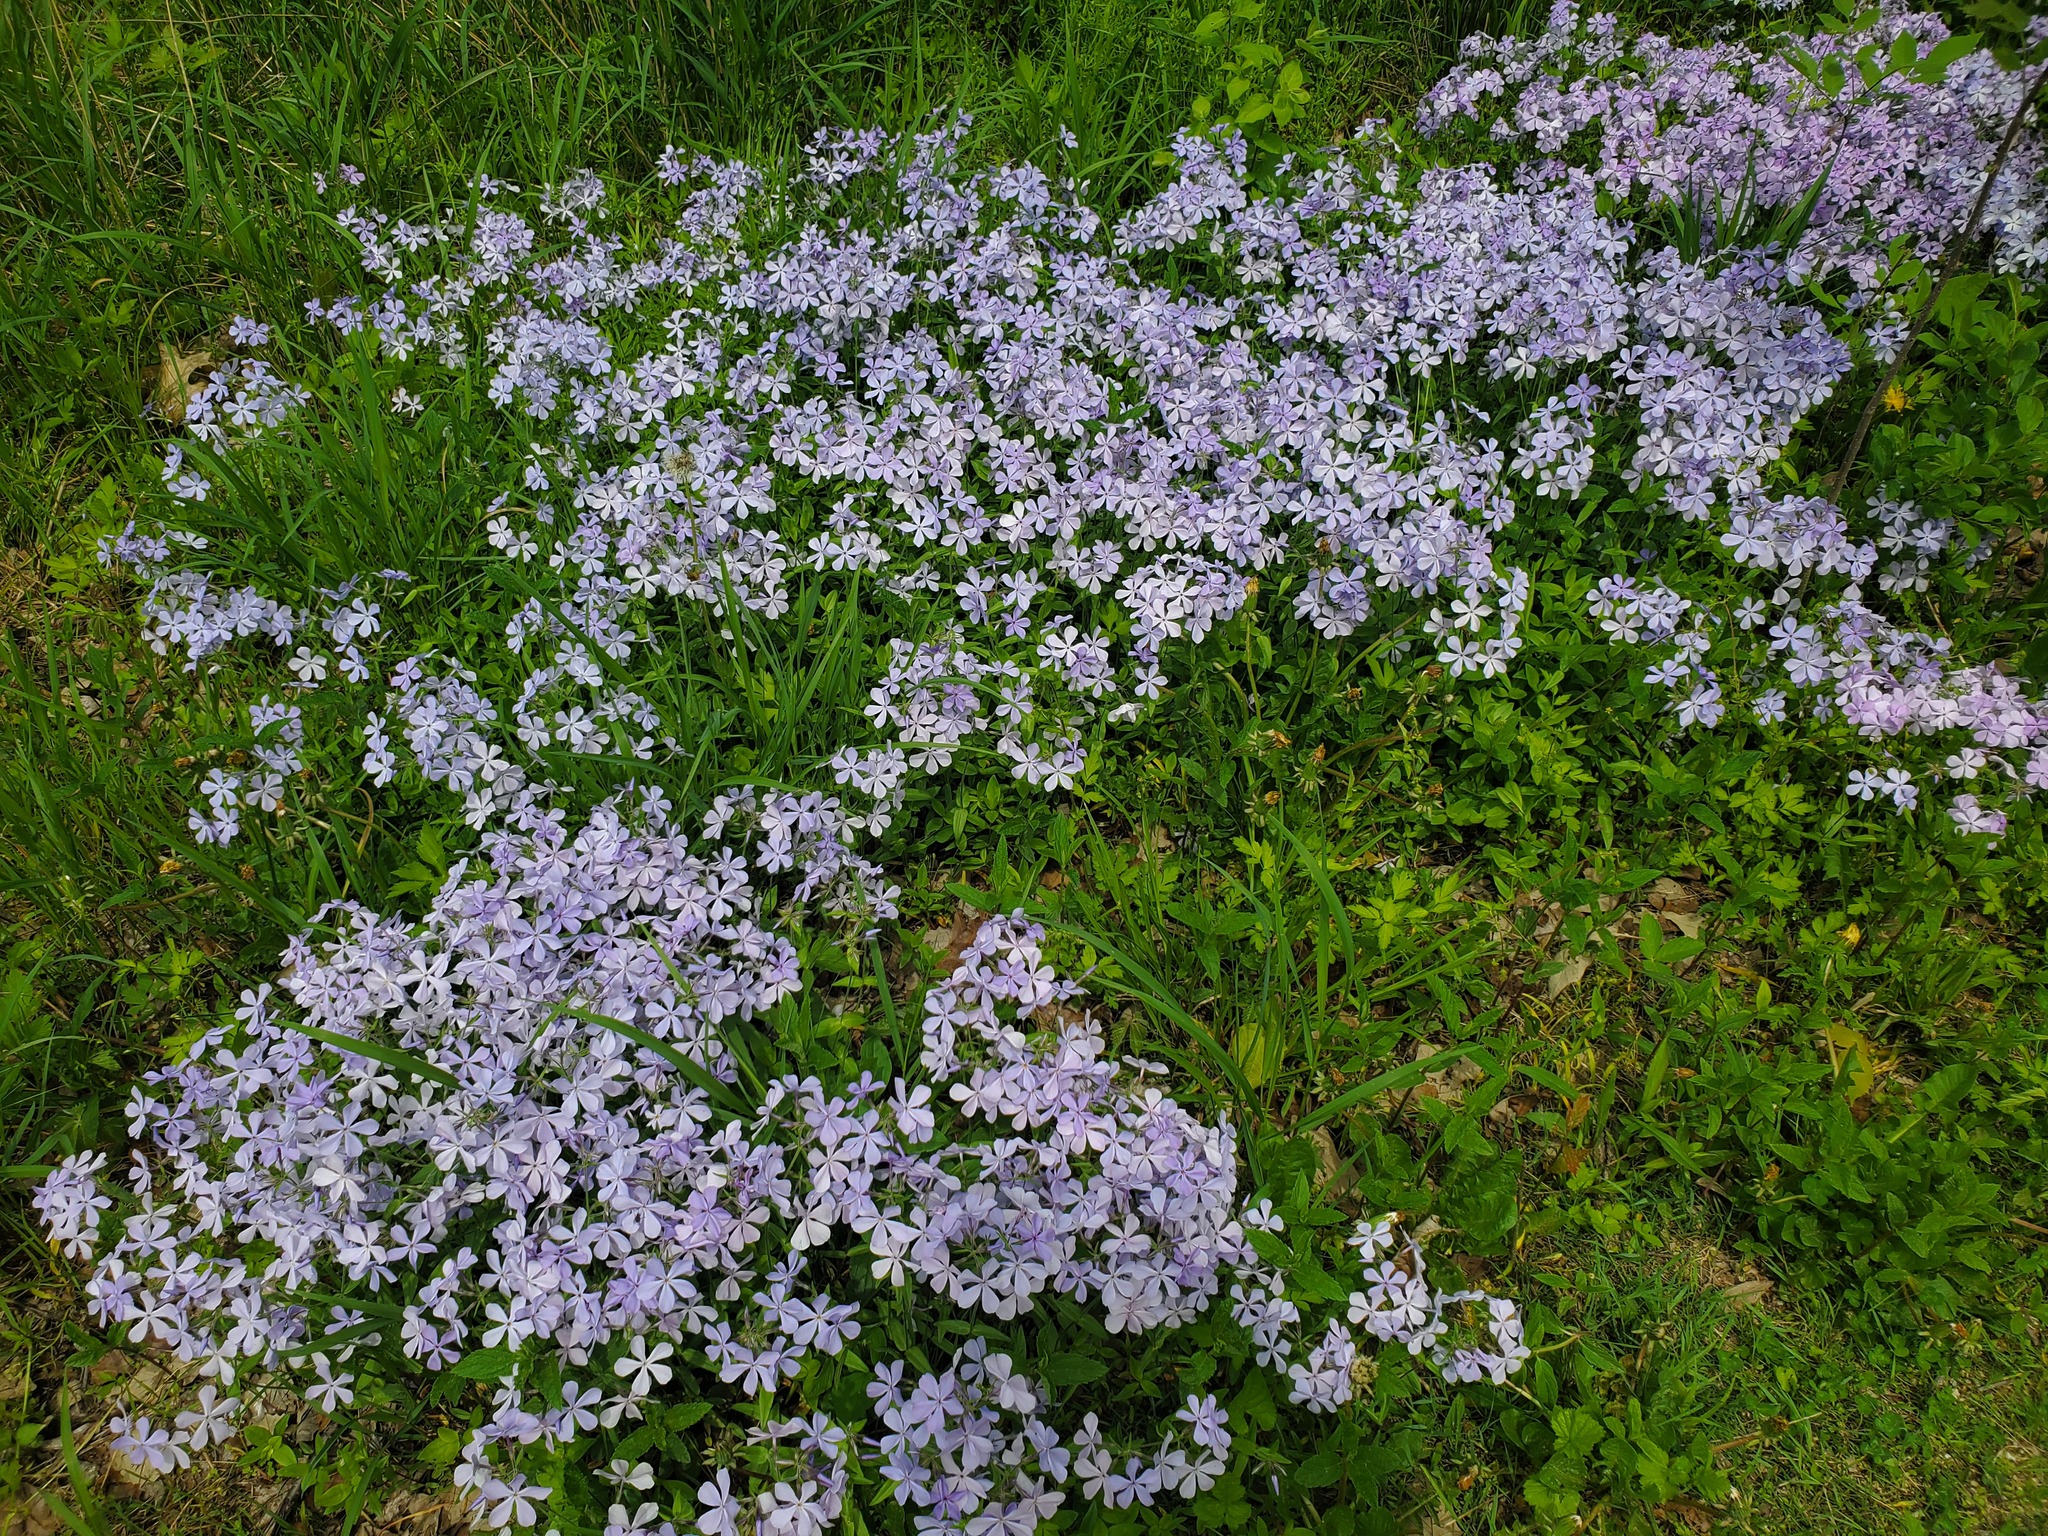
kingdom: Plantae
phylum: Tracheophyta
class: Magnoliopsida
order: Ericales
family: Polemoniaceae
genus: Phlox
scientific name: Phlox divaricata
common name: Blue phlox
